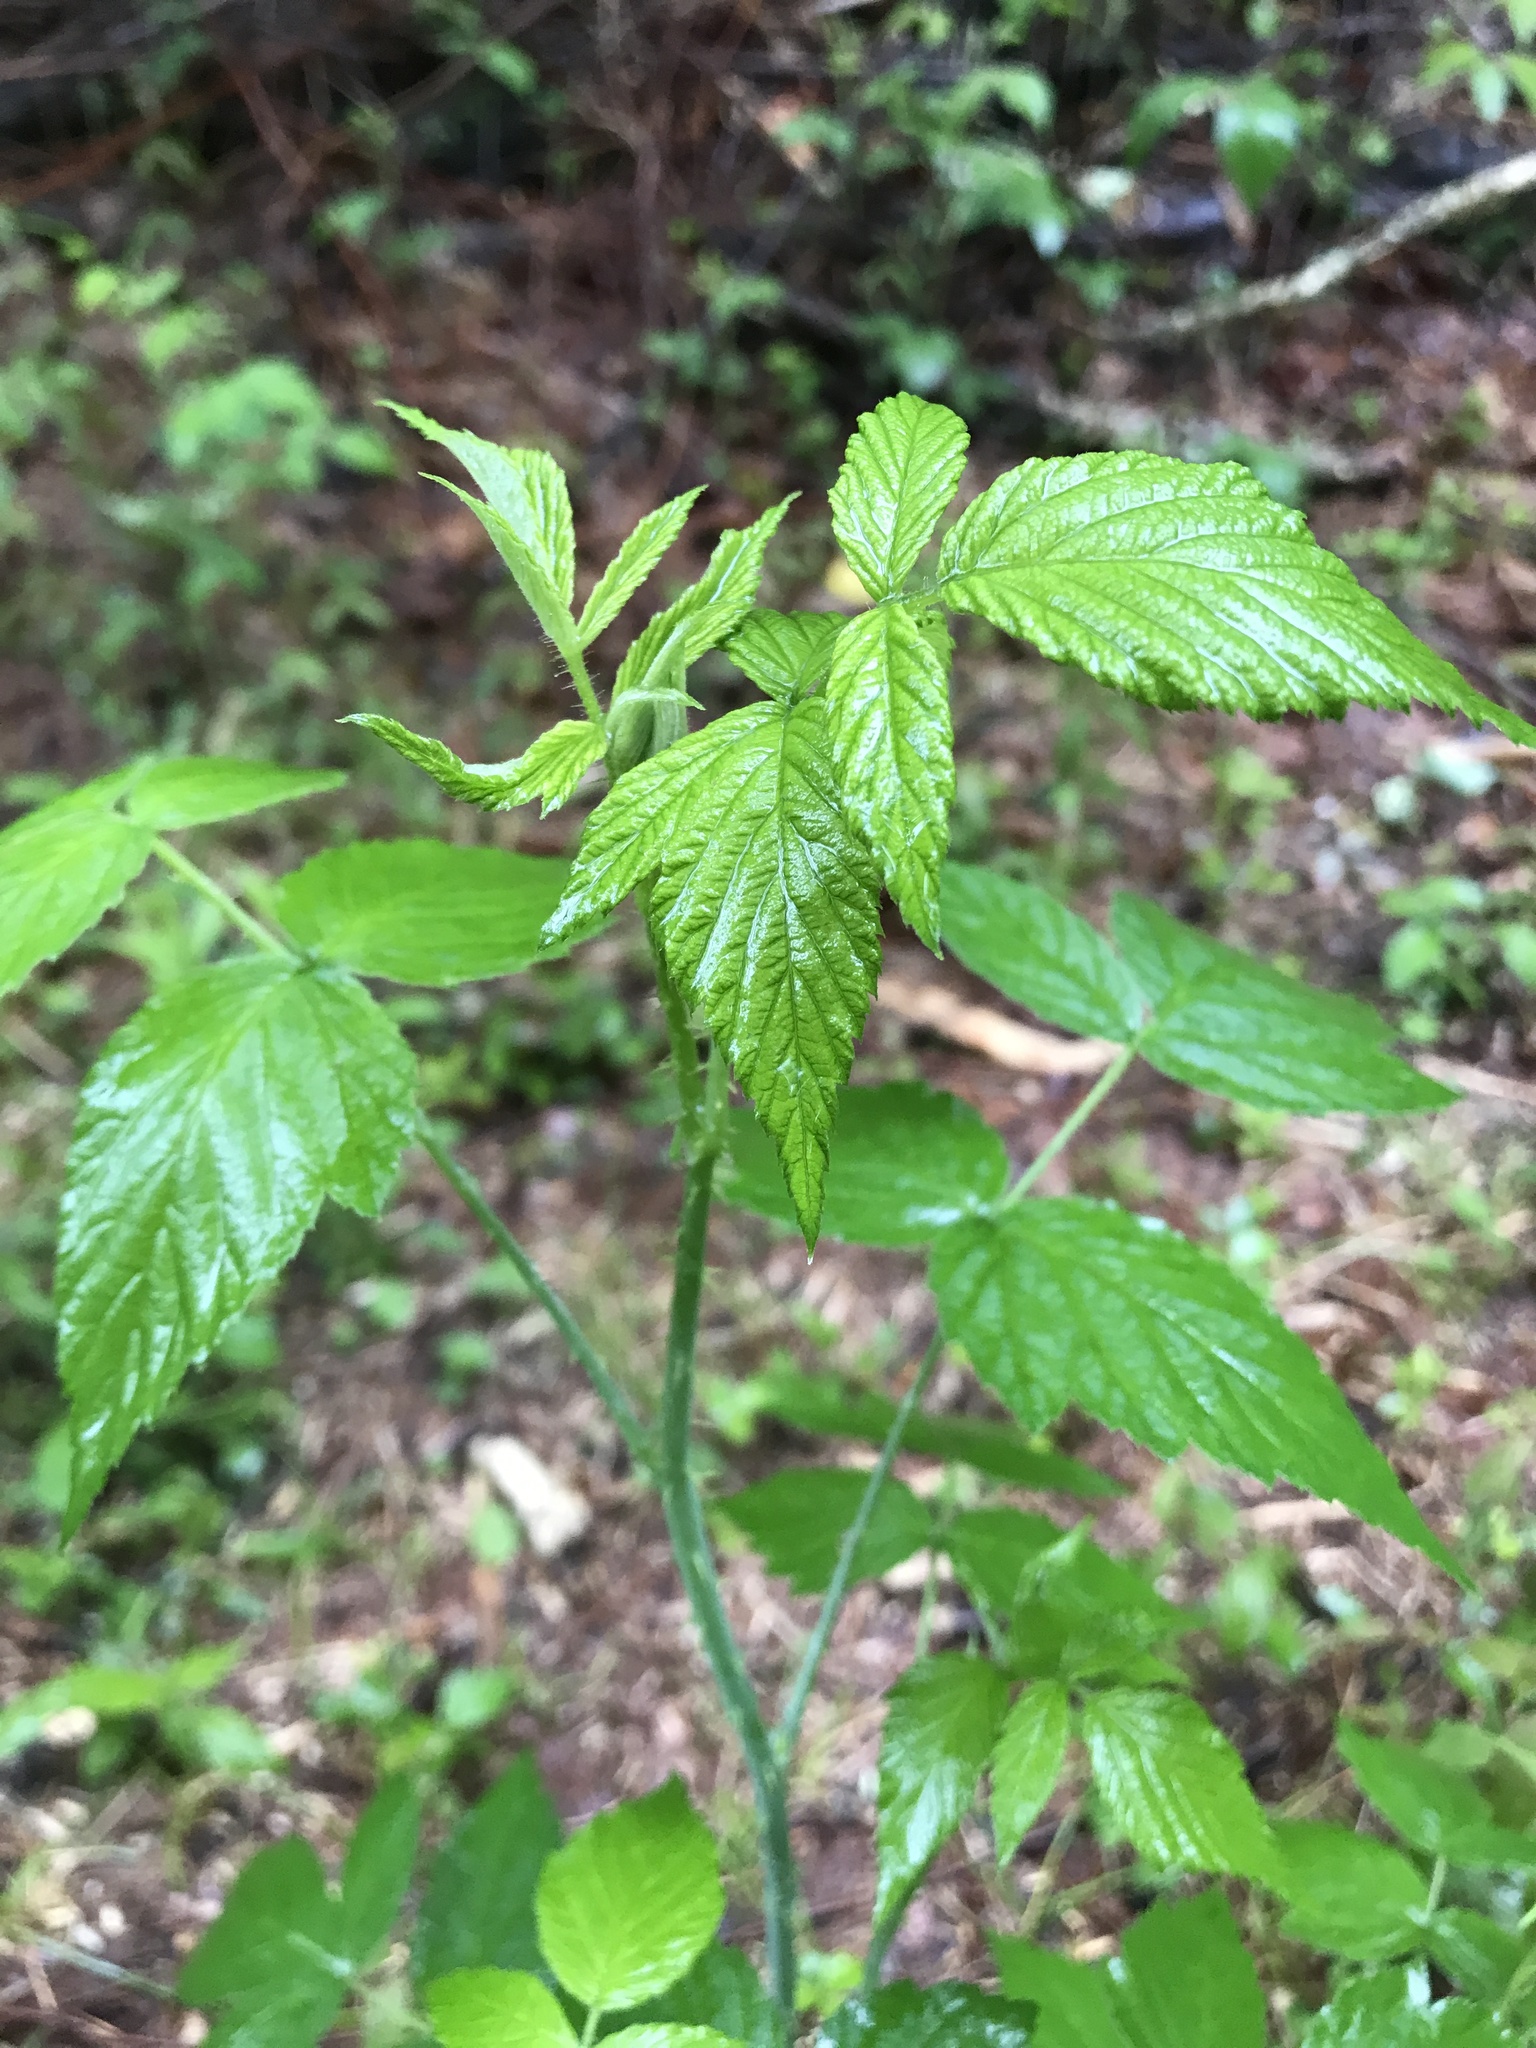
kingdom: Plantae
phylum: Tracheophyta
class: Magnoliopsida
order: Rosales
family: Rosaceae
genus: Rubus
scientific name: Rubus occidentalis
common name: Black raspberry
